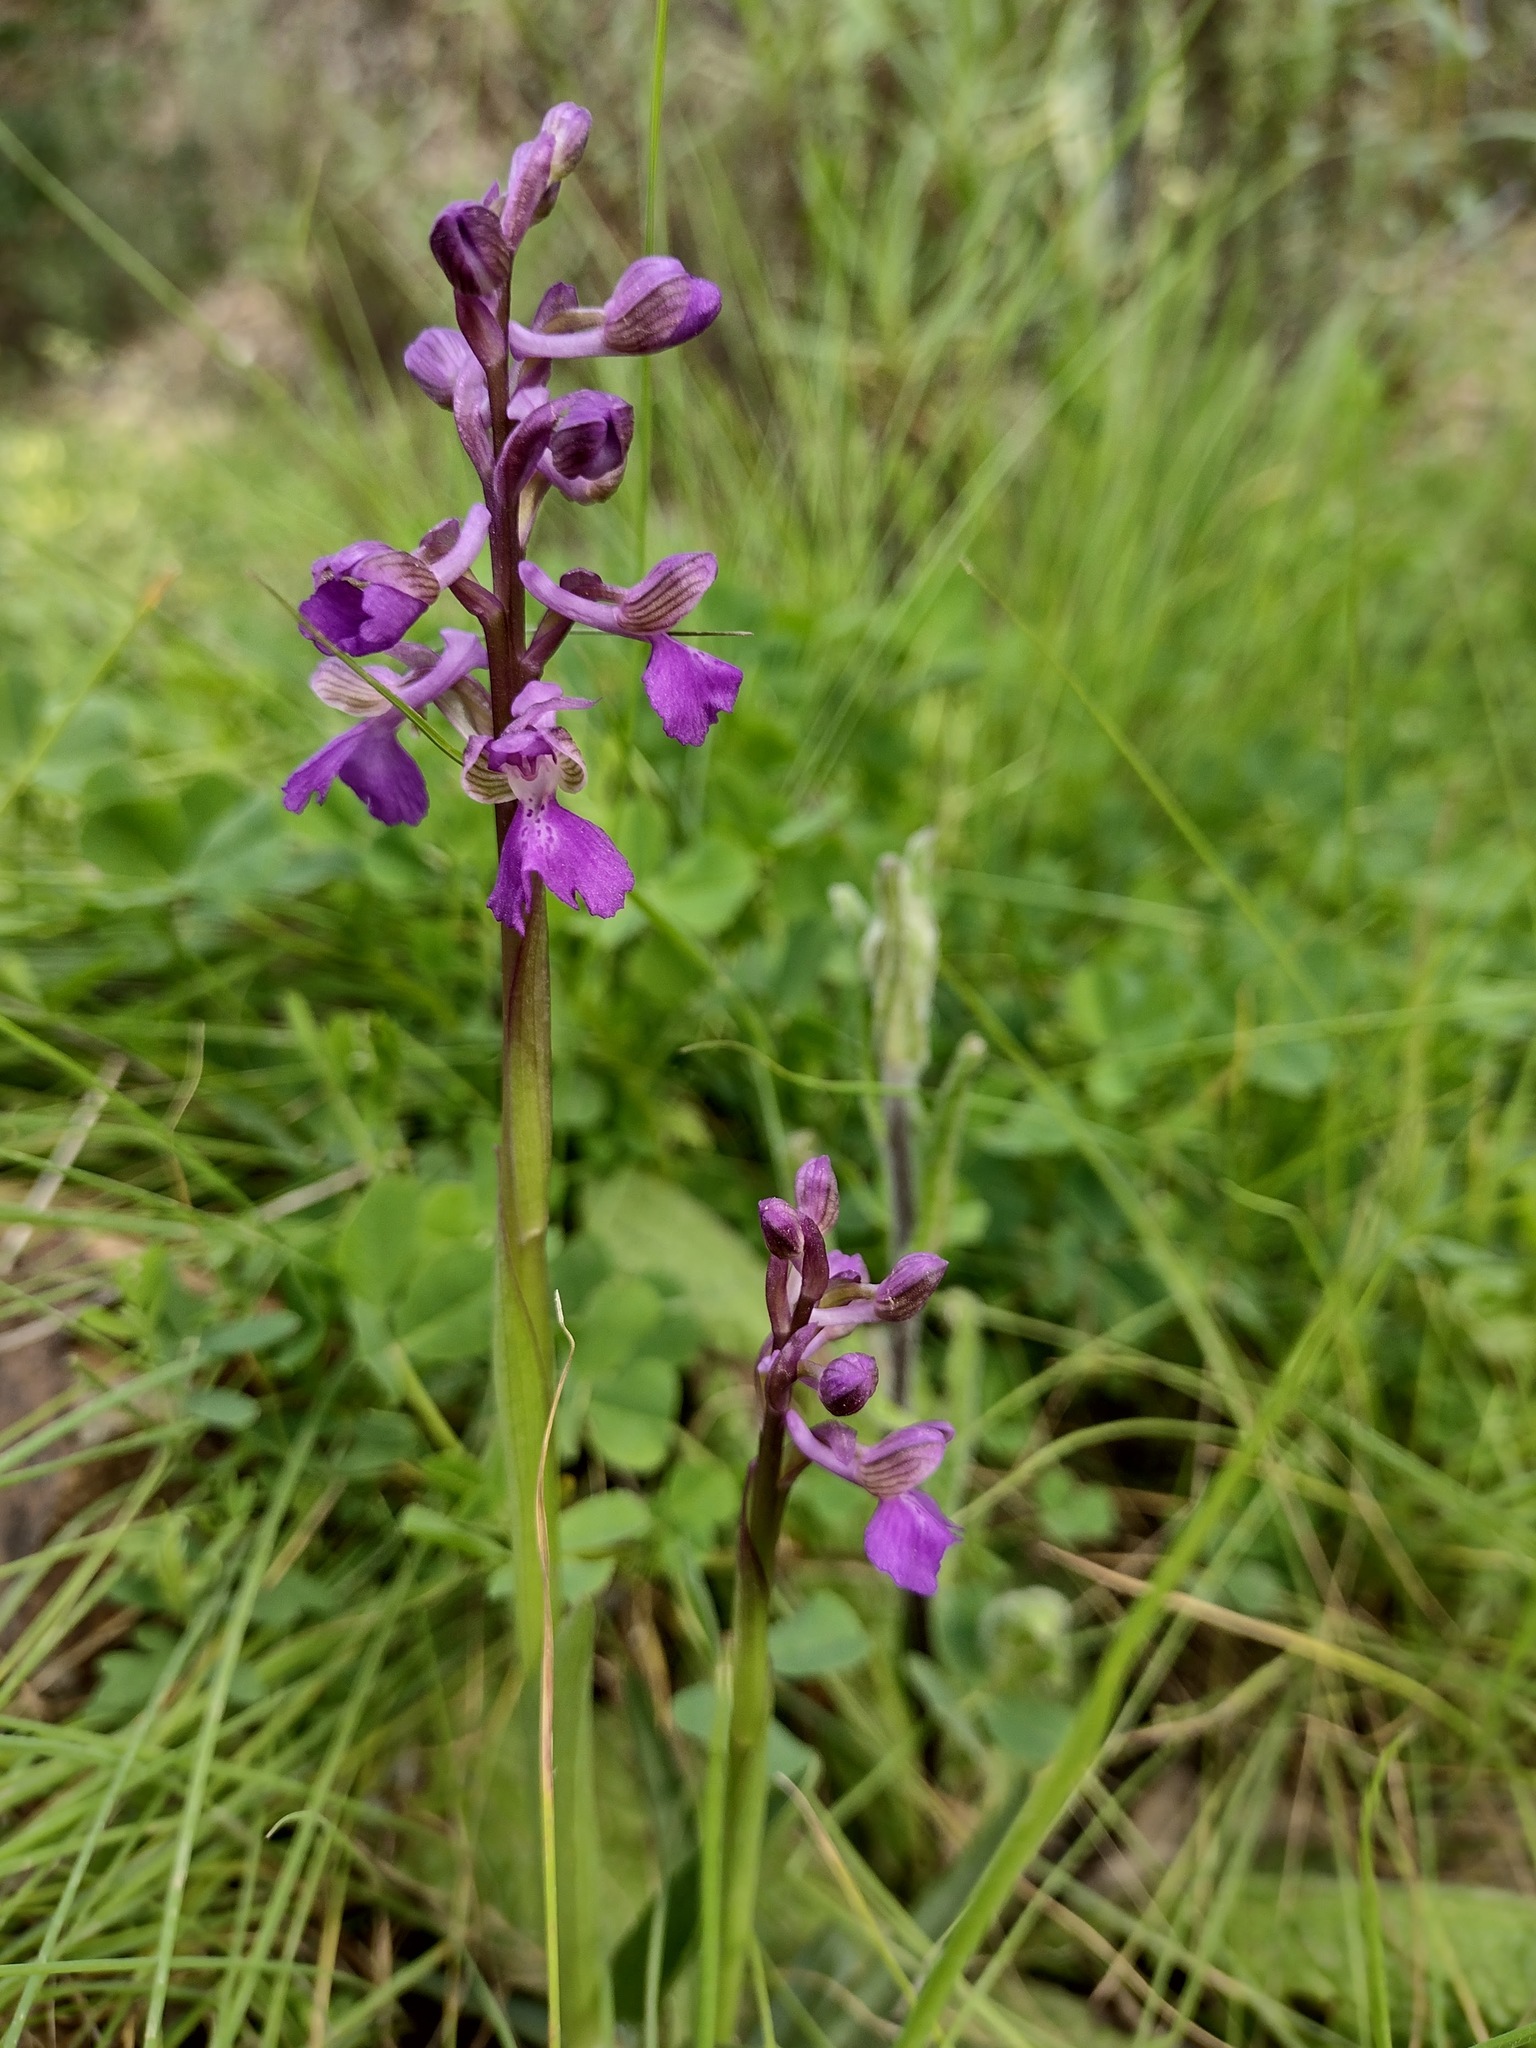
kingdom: Plantae
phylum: Tracheophyta
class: Liliopsida
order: Asparagales
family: Orchidaceae
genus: Anacamptis
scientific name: Anacamptis morio
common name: Green-winged orchid
